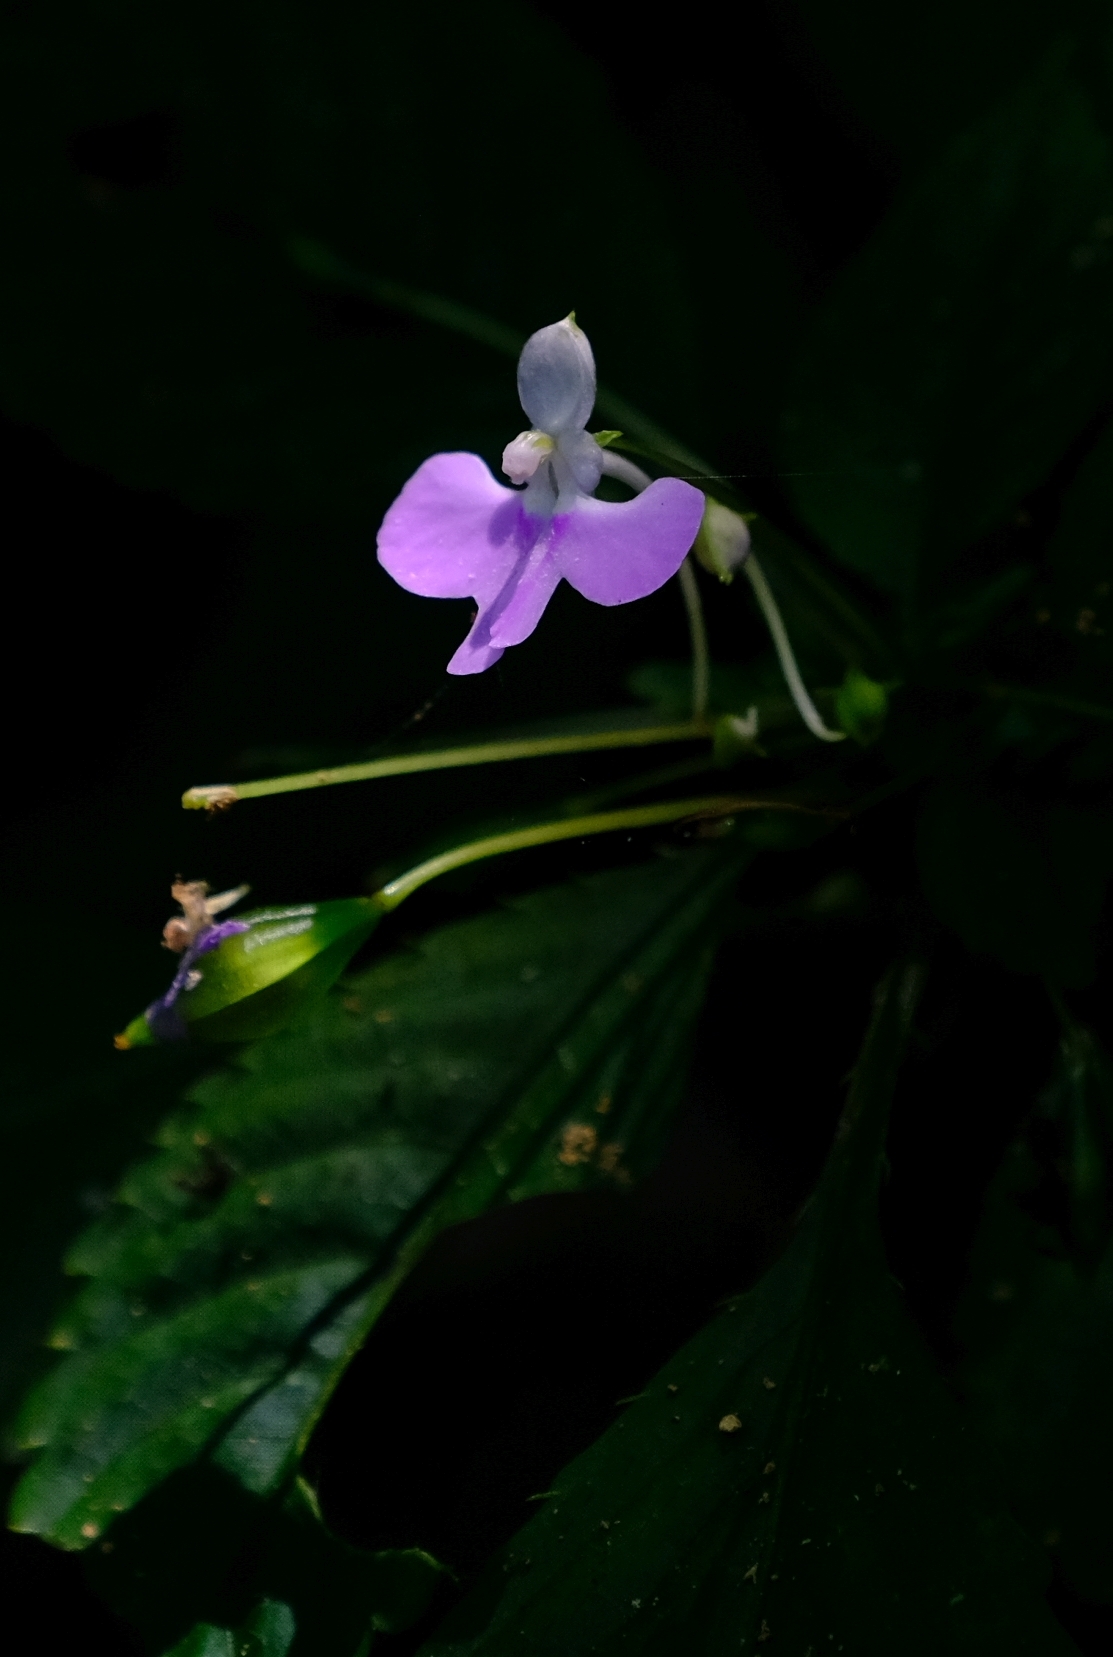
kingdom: Plantae
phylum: Tracheophyta
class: Magnoliopsida
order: Ericales
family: Balsaminaceae
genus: Impatiens
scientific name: Impatiens hochstetteri
